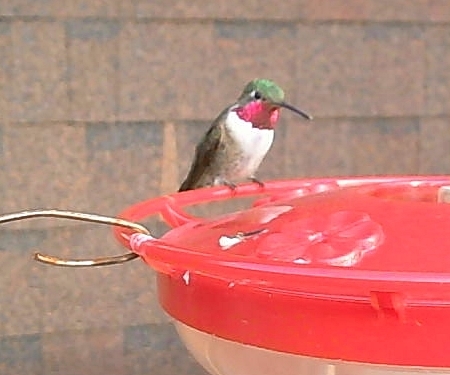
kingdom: Animalia
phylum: Chordata
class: Aves
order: Apodiformes
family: Trochilidae
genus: Selasphorus
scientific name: Selasphorus platycercus
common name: Broad-tailed hummingbird
